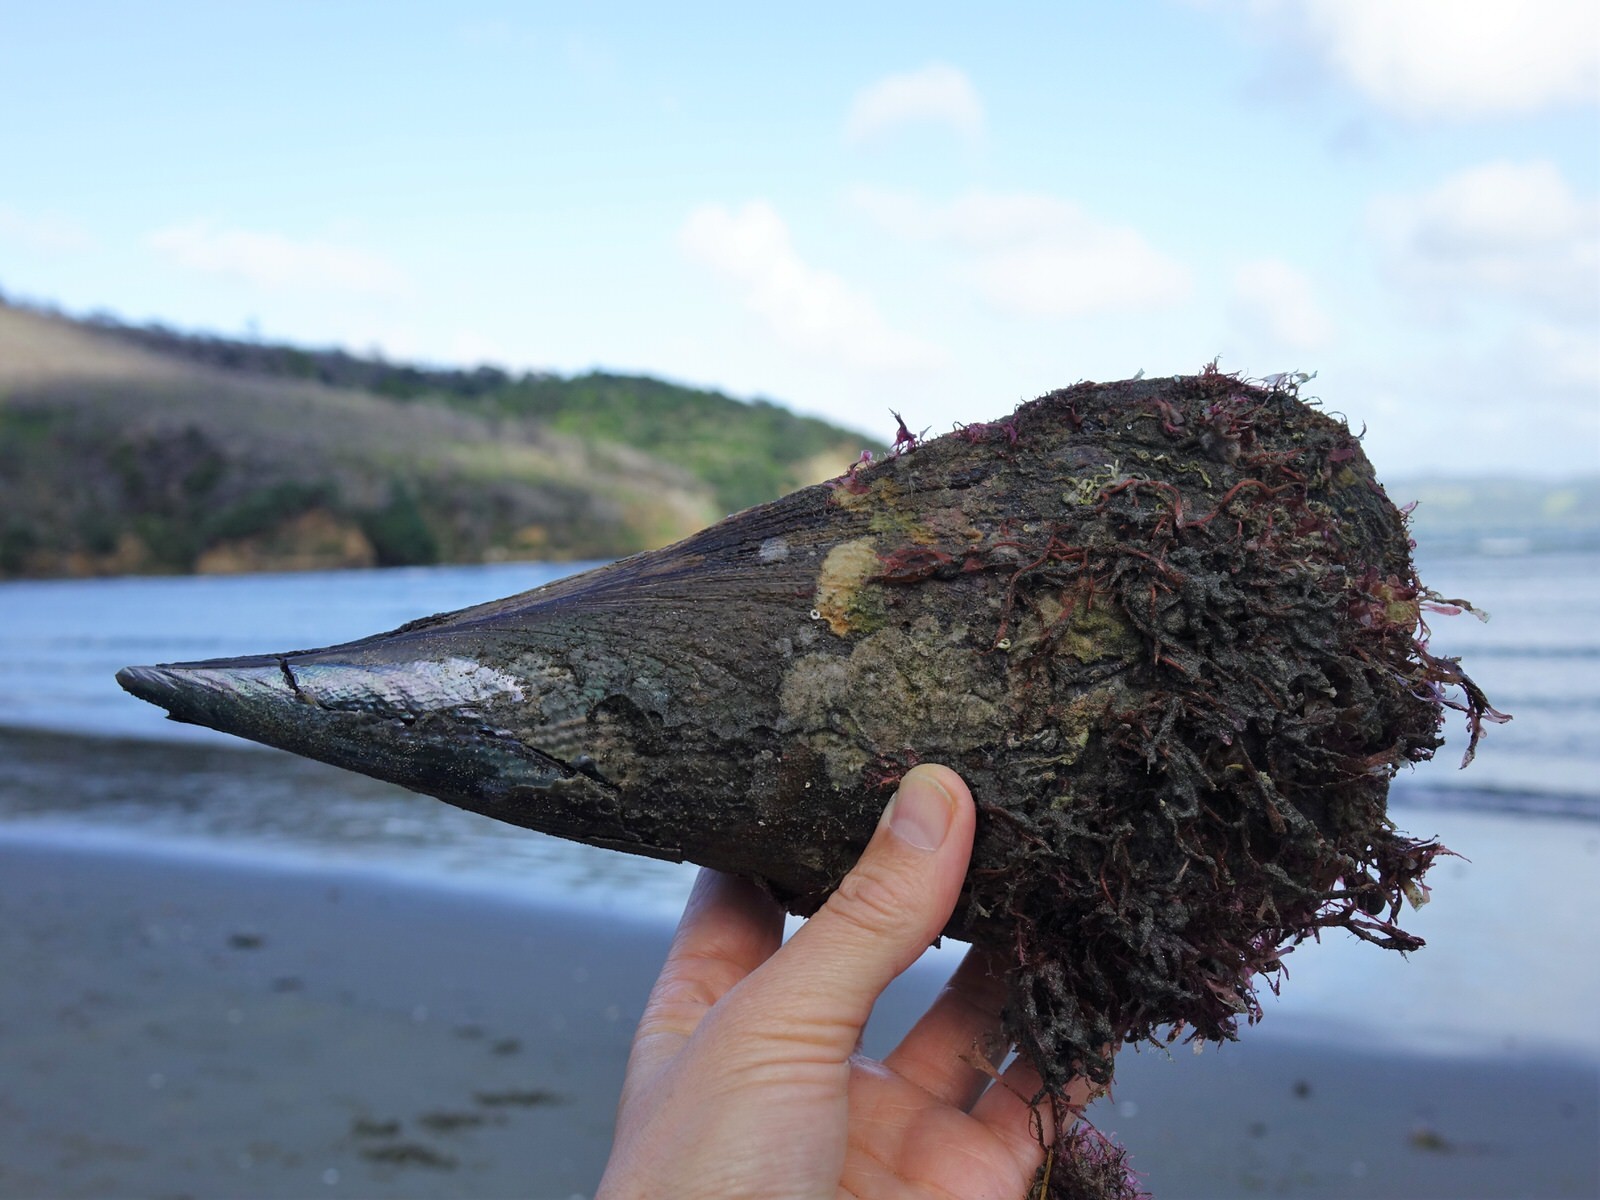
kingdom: Animalia
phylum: Mollusca
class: Bivalvia
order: Ostreida
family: Pinnidae
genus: Atrina
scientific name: Atrina zelandica
